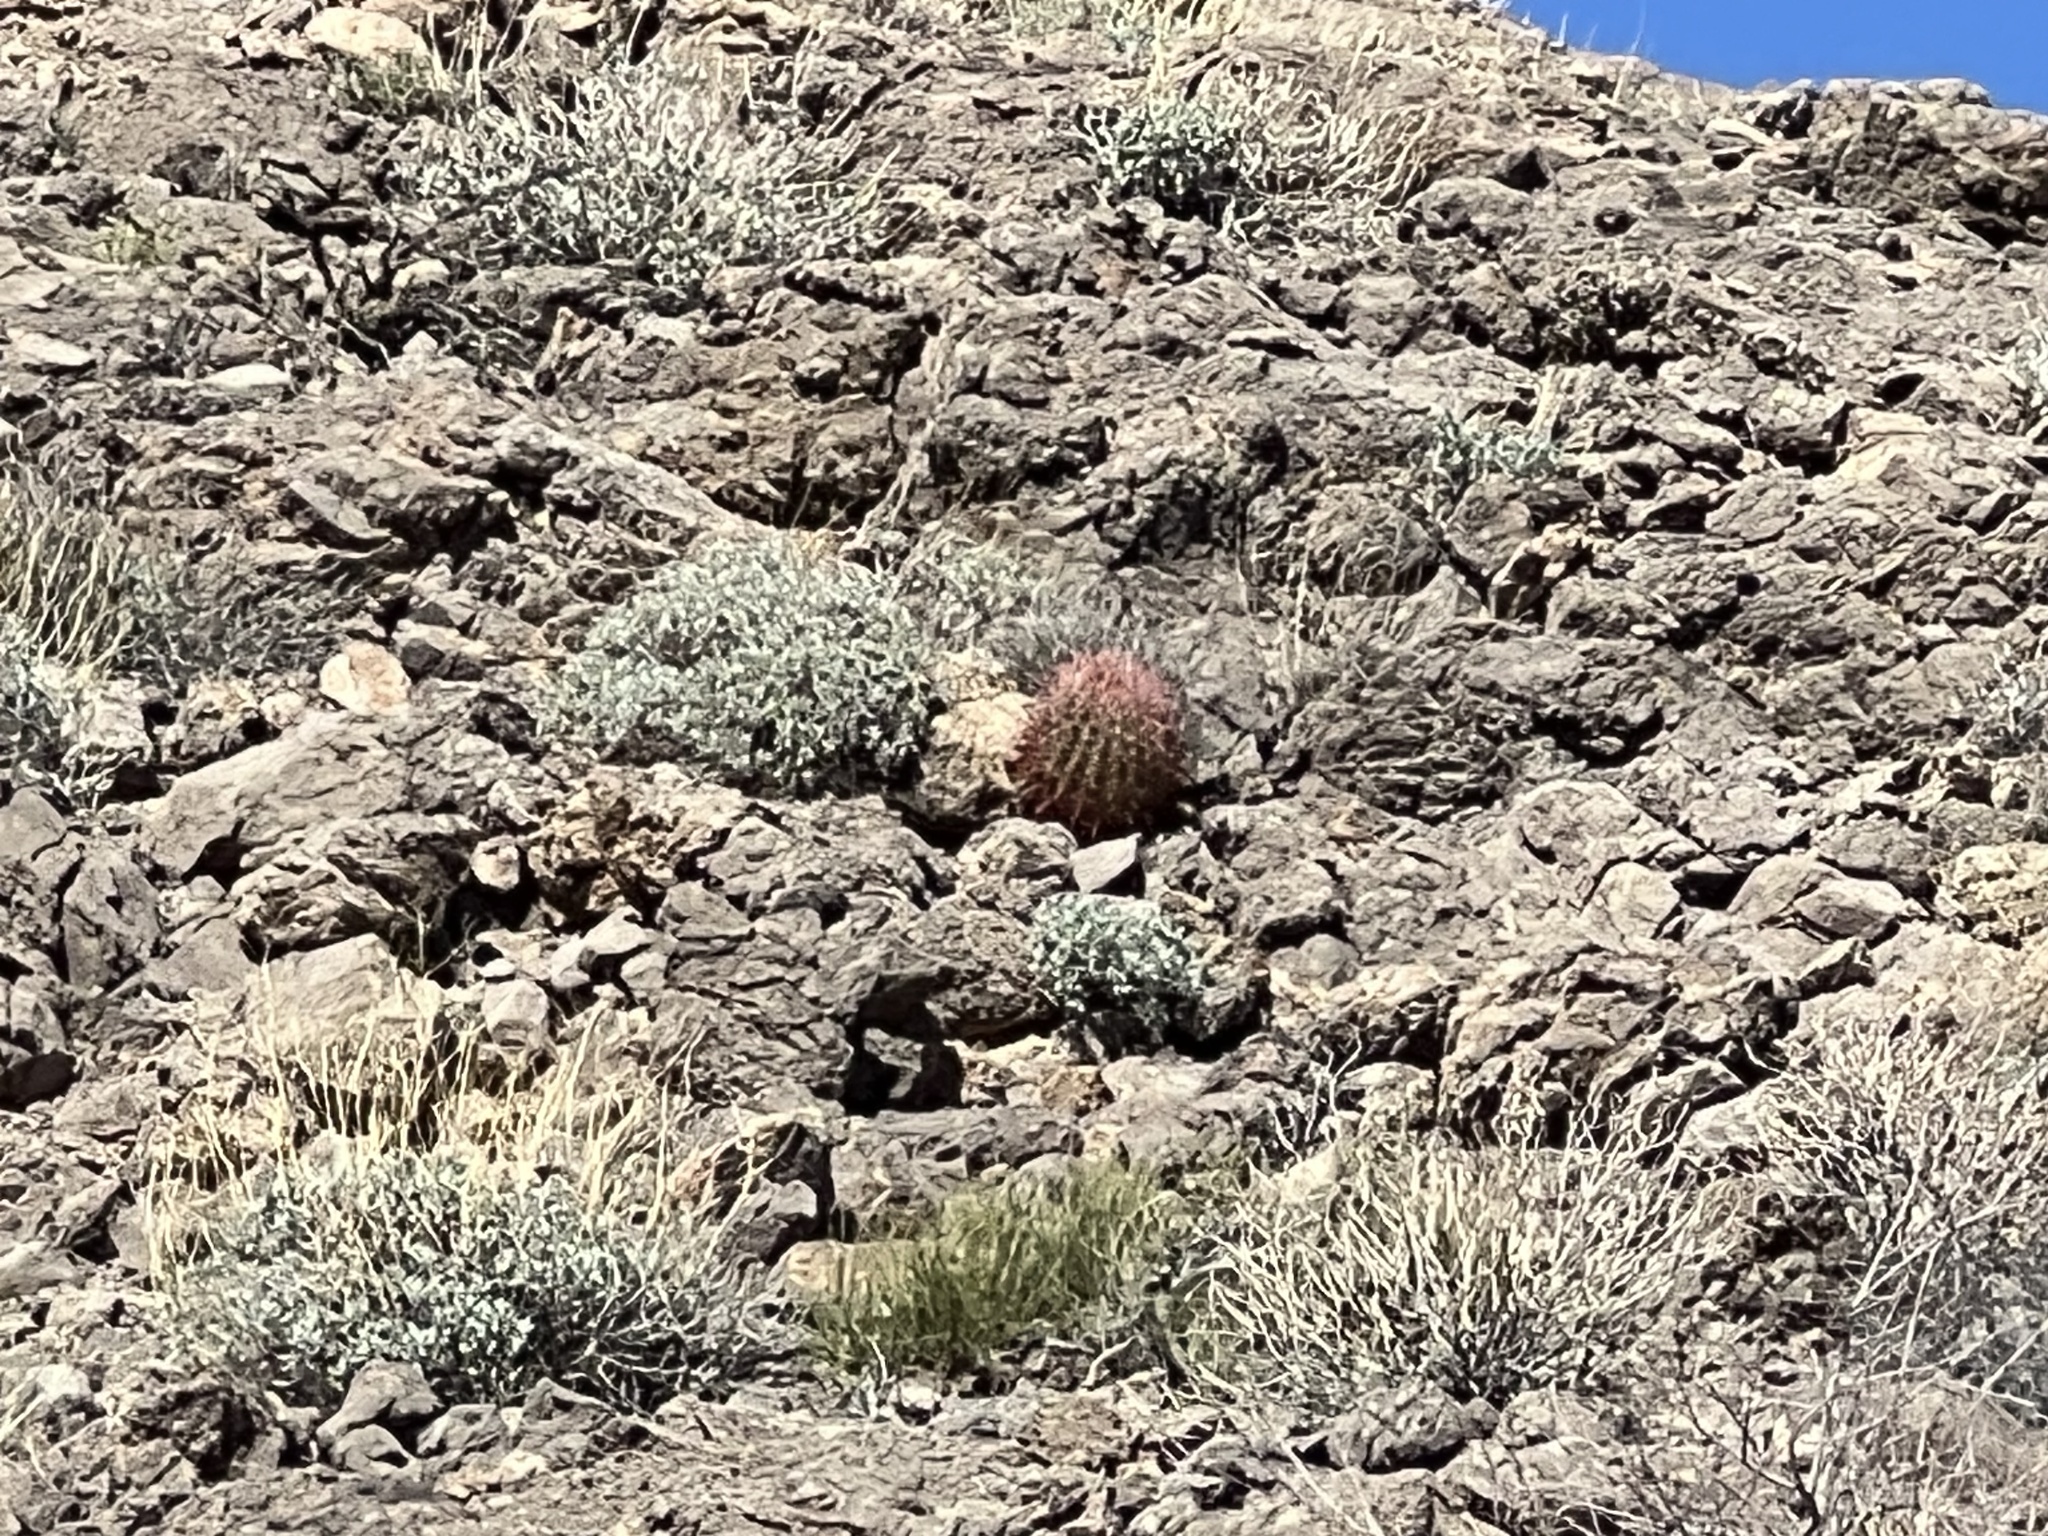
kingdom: Plantae
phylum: Tracheophyta
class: Magnoliopsida
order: Caryophyllales
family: Cactaceae
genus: Ferocactus
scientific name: Ferocactus cylindraceus
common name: California barrel cactus
